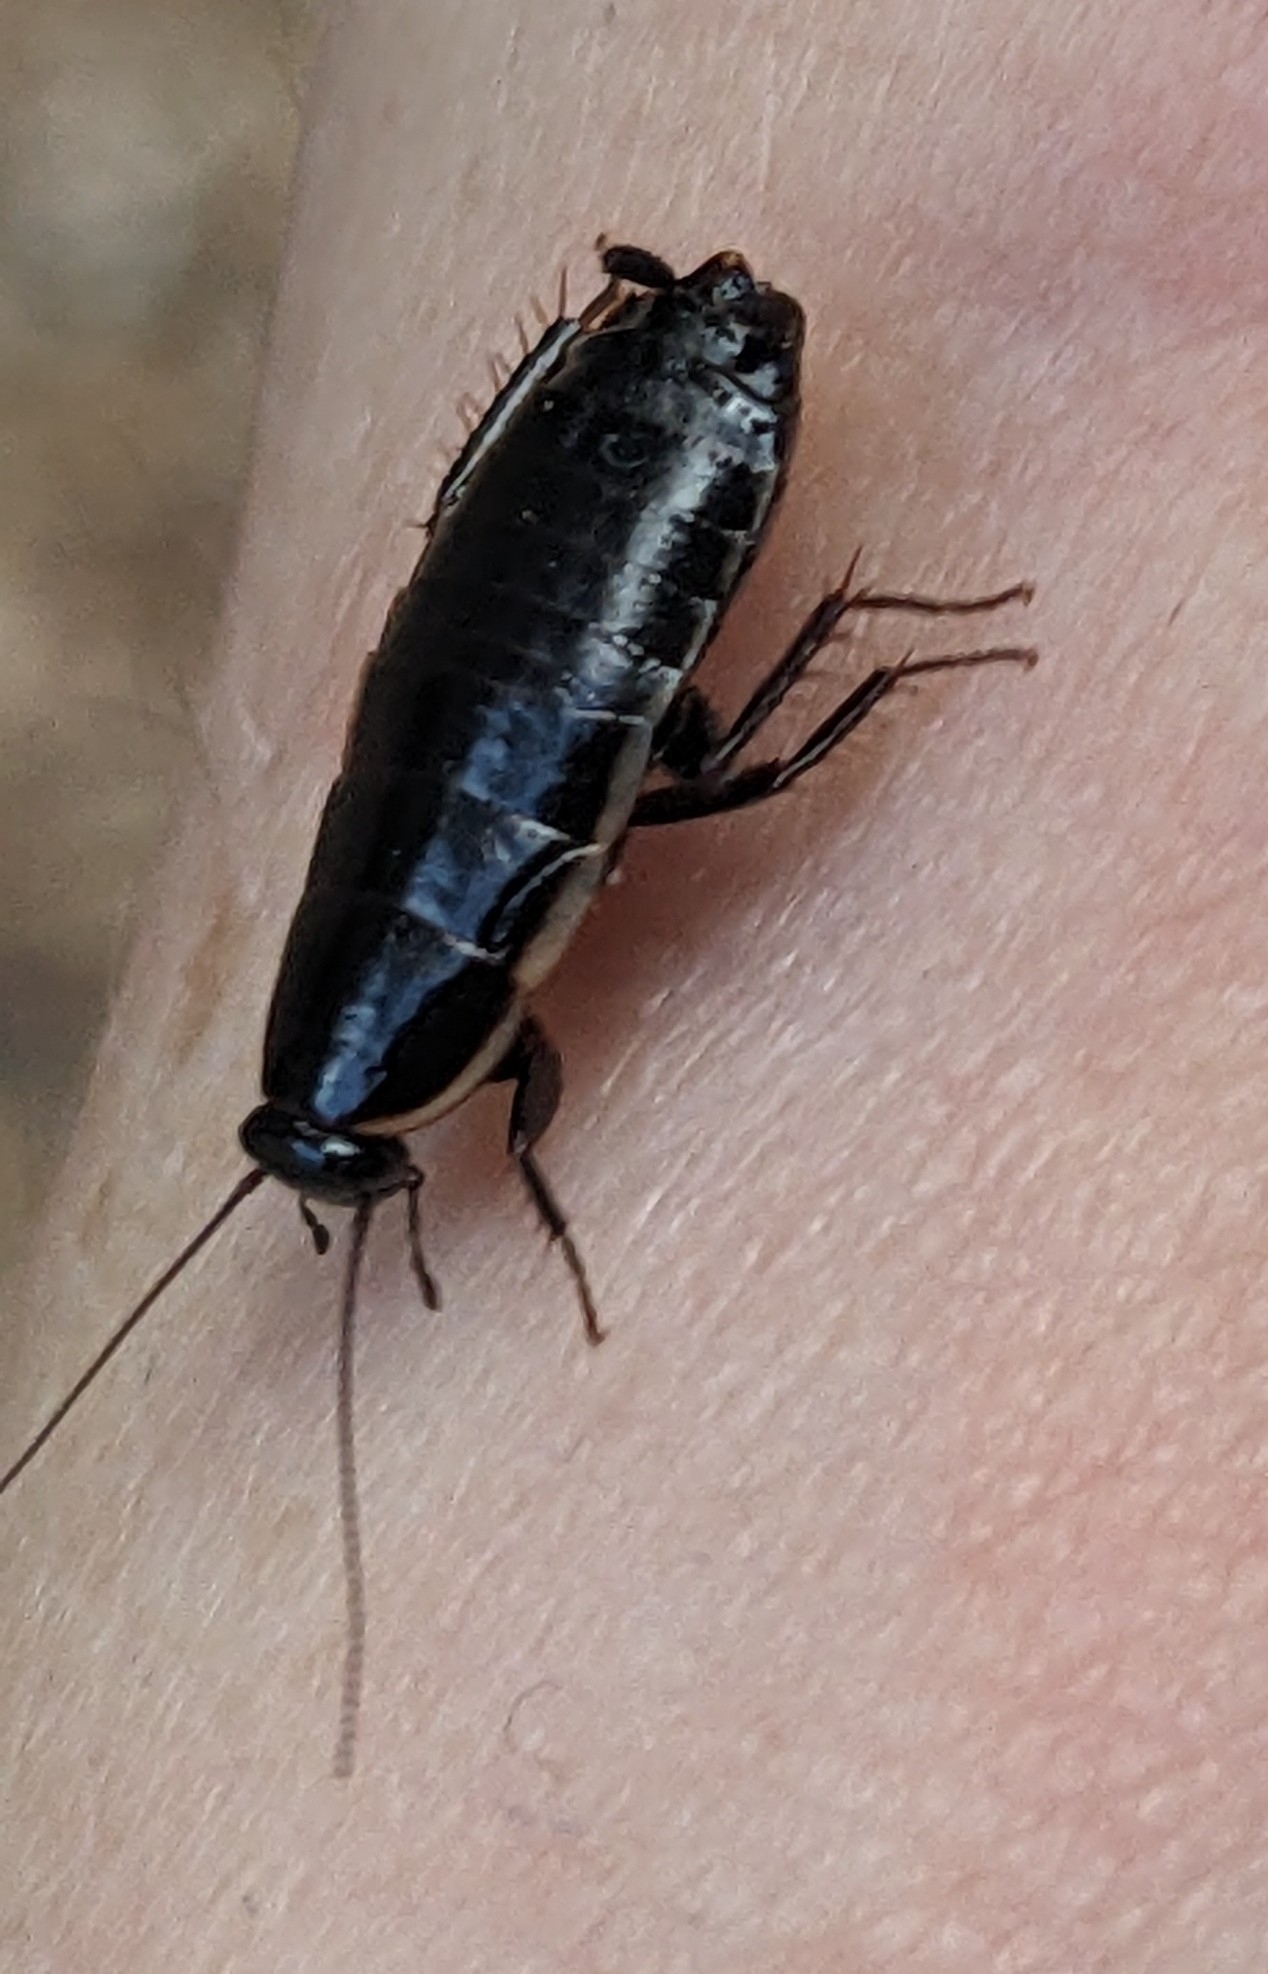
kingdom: Animalia
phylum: Arthropoda
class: Insecta
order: Blattodea
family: Ectobiidae
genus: Loboptera
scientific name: Loboptera decipiens
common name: Lobe-winged cockroach
